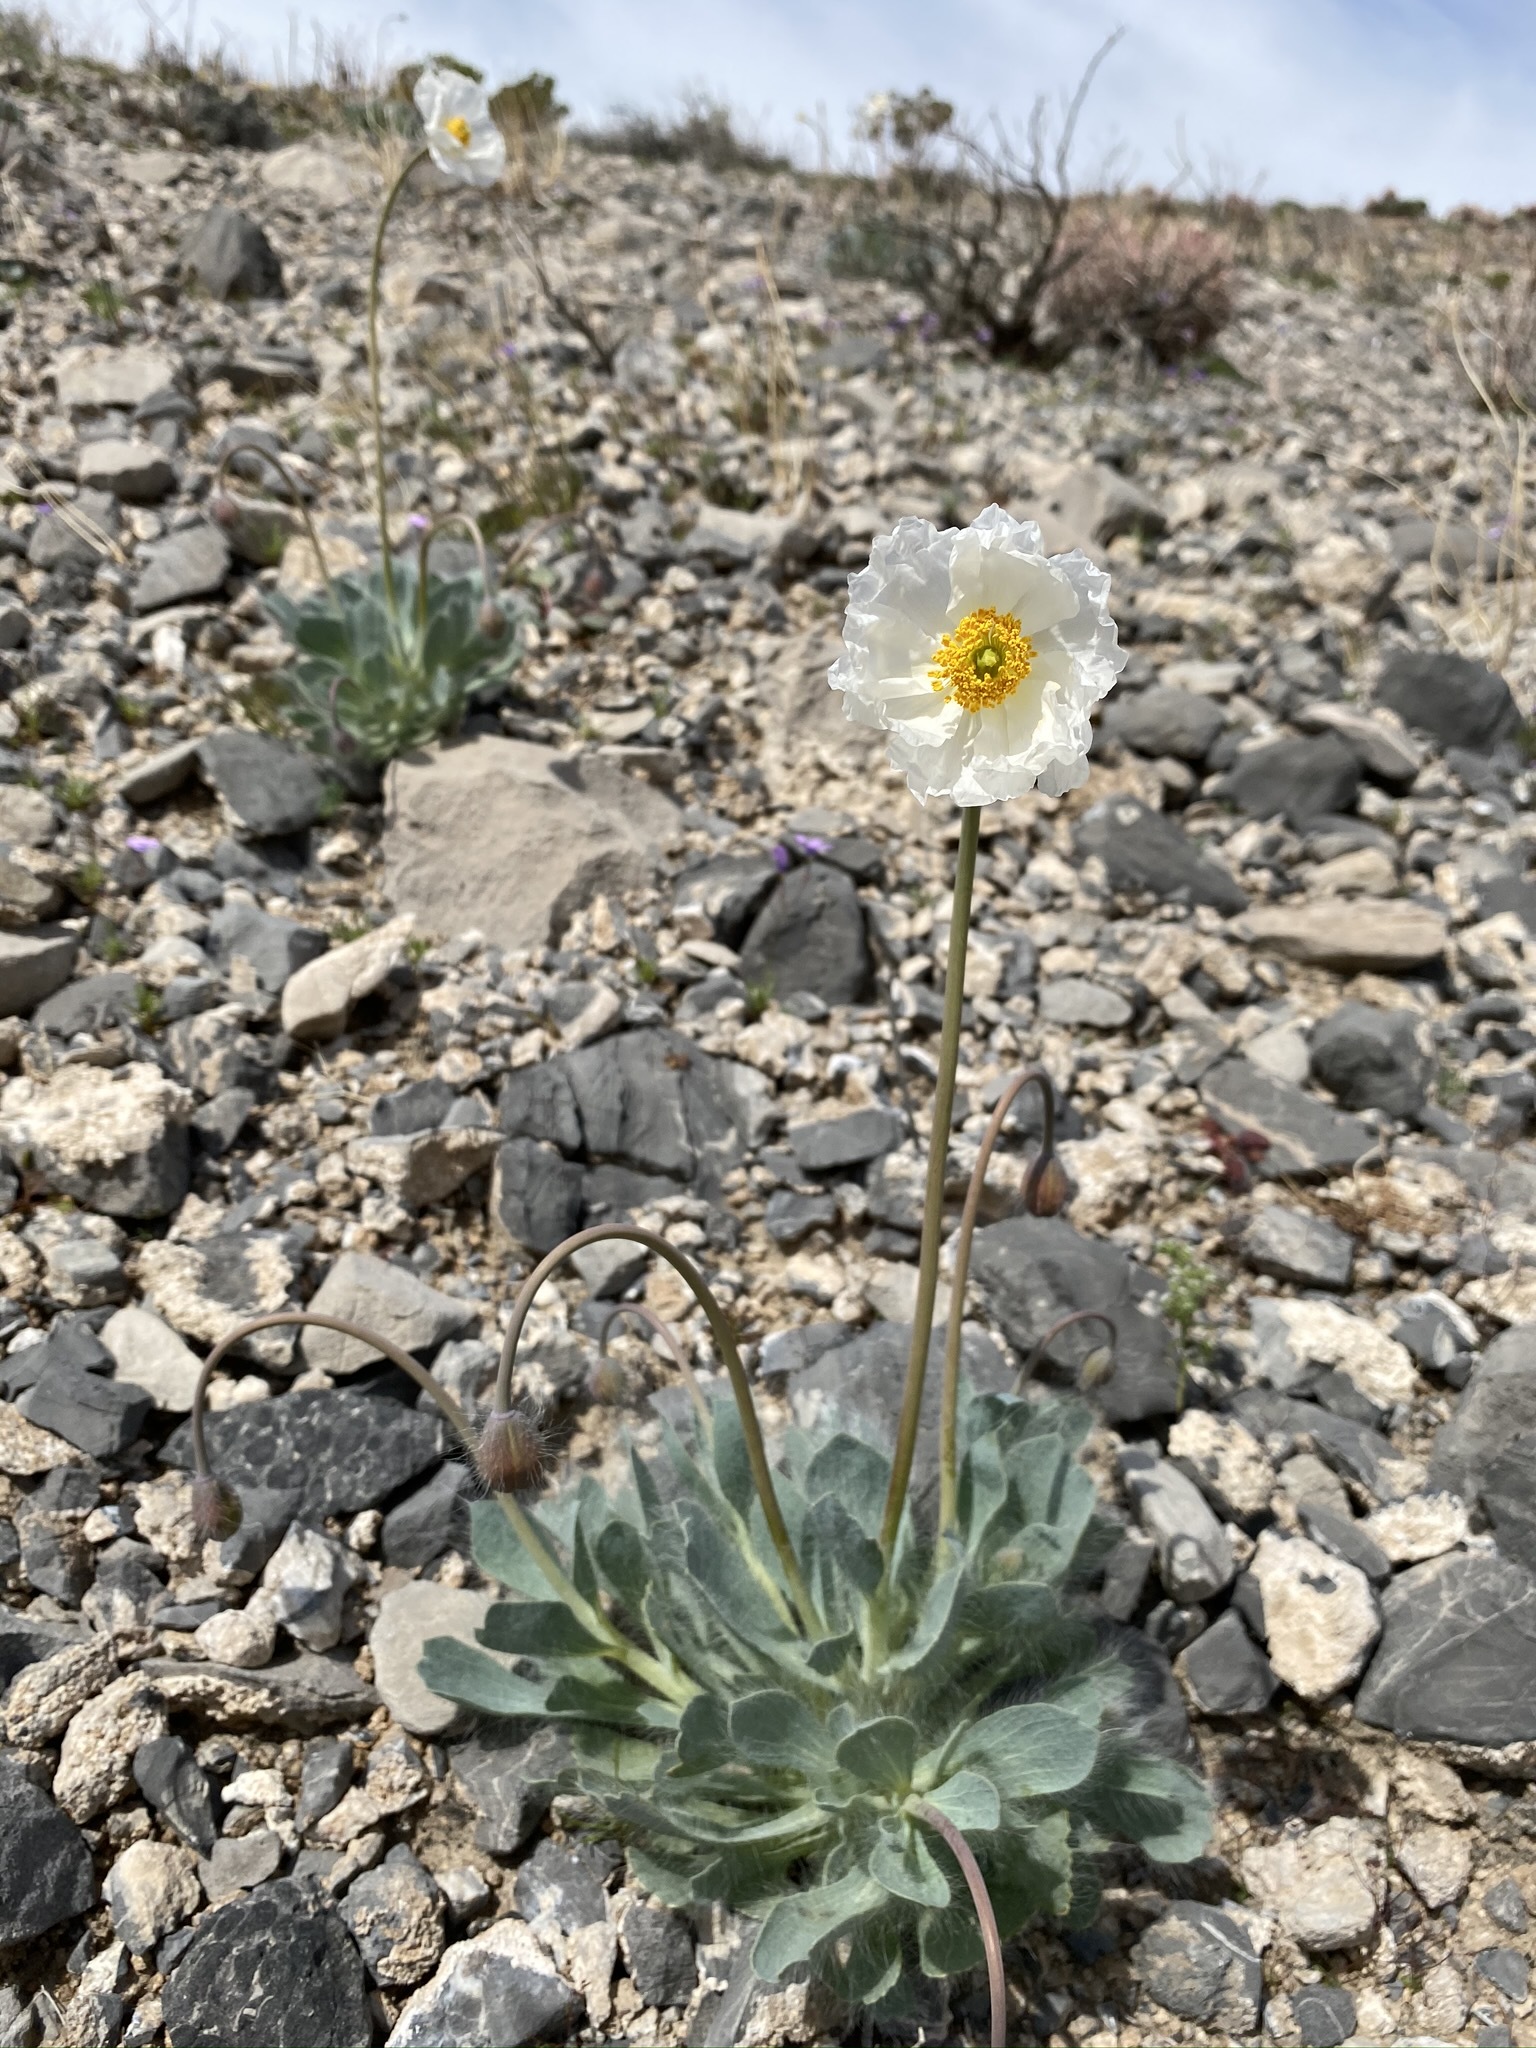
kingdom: Plantae
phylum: Tracheophyta
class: Magnoliopsida
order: Ranunculales
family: Papaveraceae
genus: Arctomecon
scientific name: Arctomecon merriamii
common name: White bear-poppy
